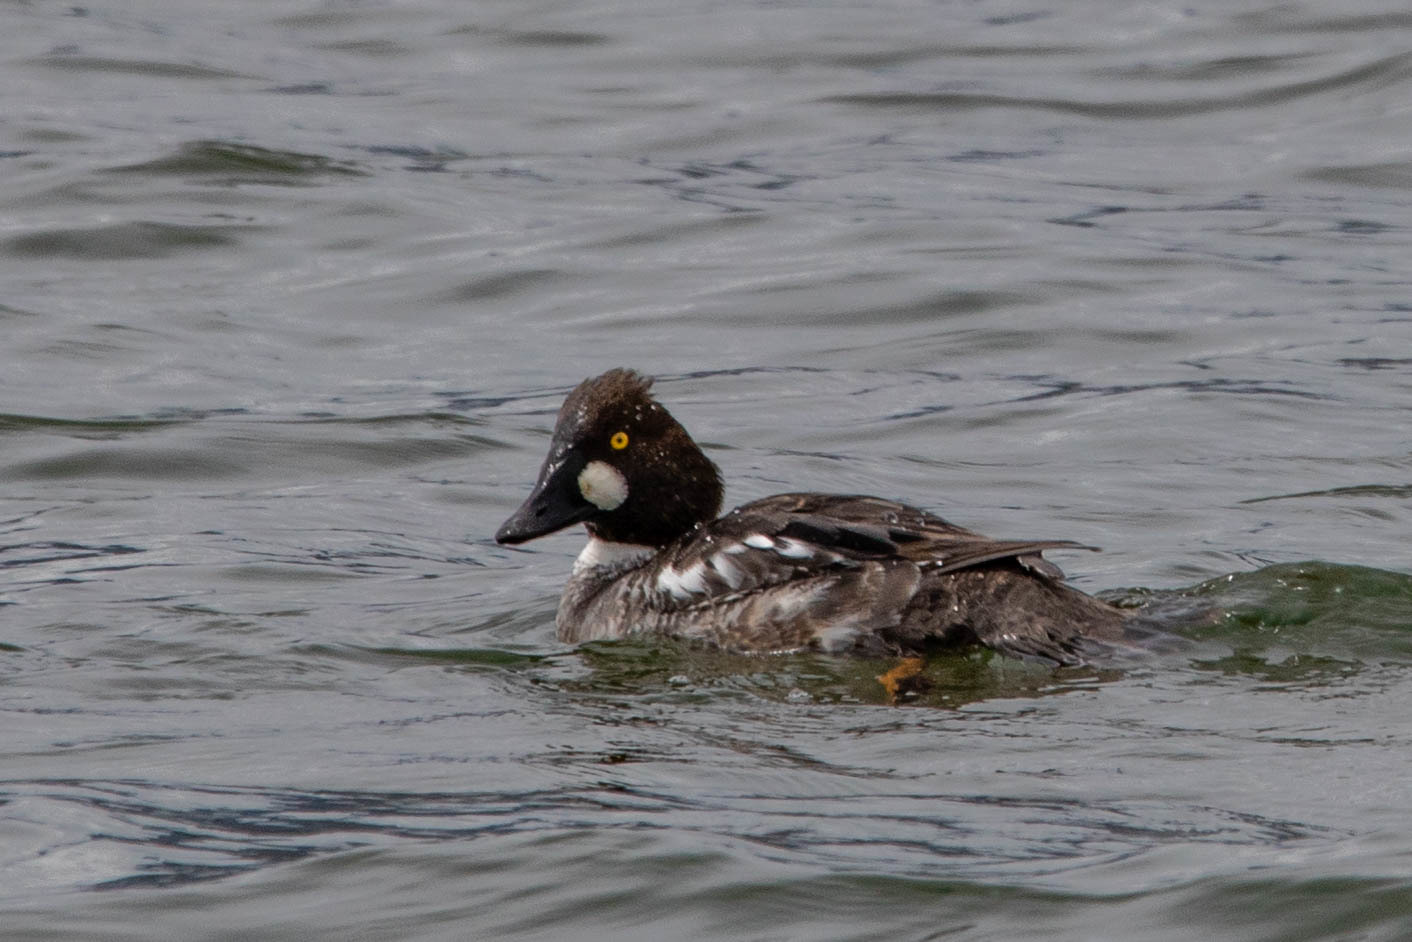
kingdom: Animalia
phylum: Chordata
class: Aves
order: Anseriformes
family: Anatidae
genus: Bucephala
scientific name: Bucephala clangula
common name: Common goldeneye
